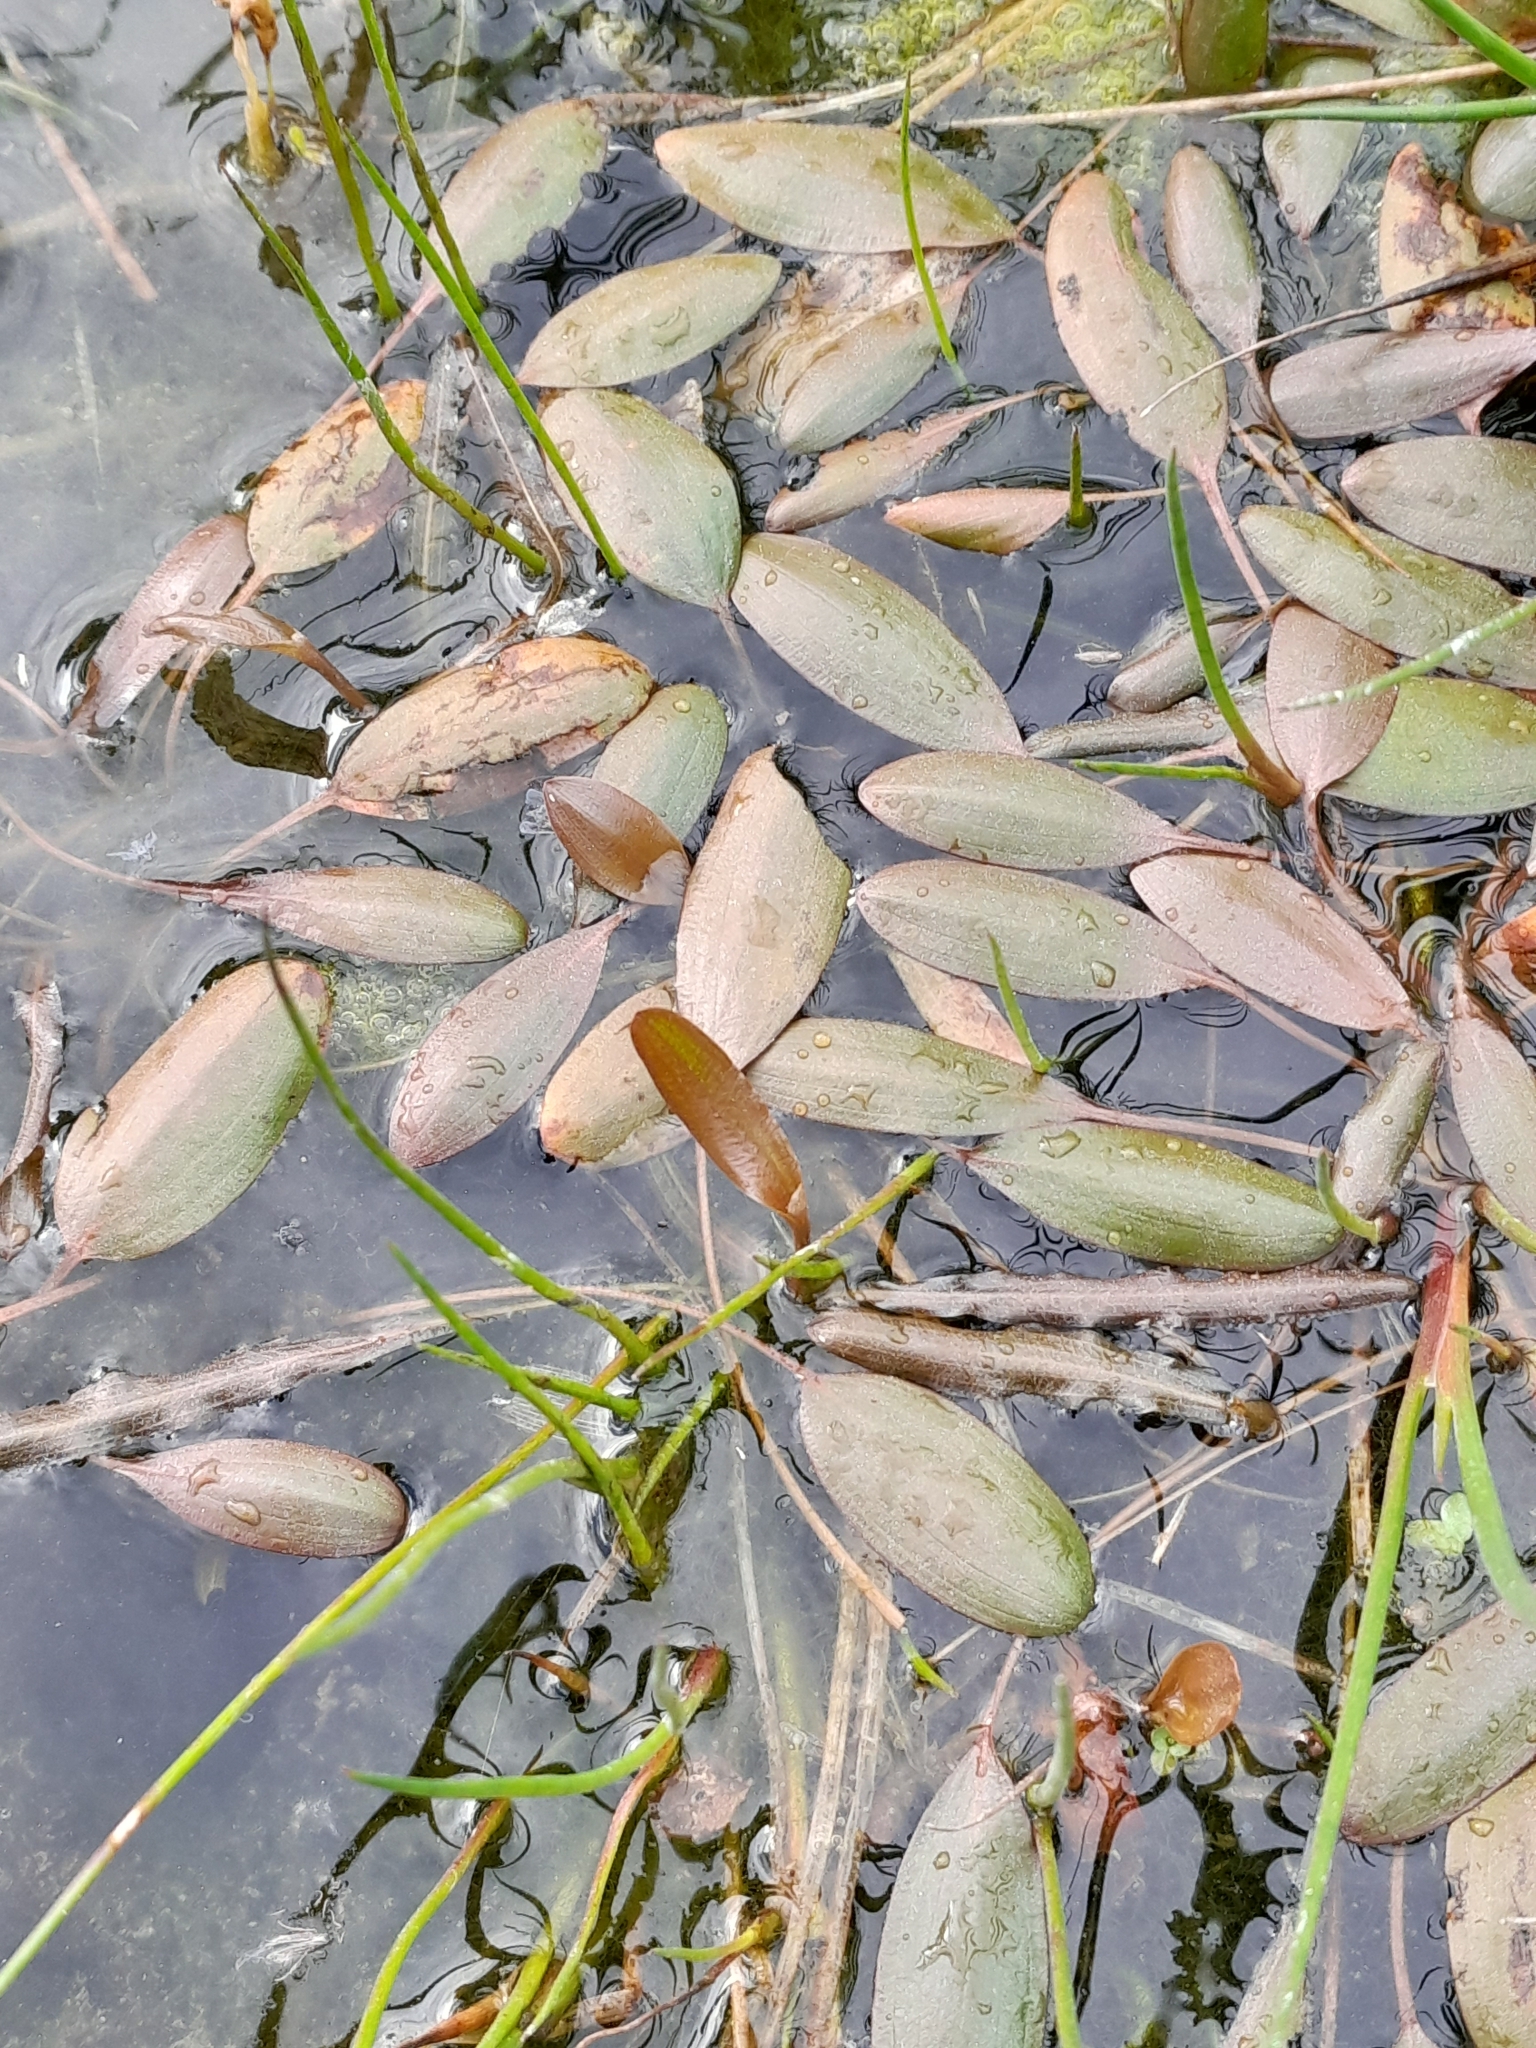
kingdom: Plantae
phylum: Tracheophyta
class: Liliopsida
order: Alismatales
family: Potamogetonaceae
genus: Potamogeton
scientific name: Potamogeton cheesemanii
